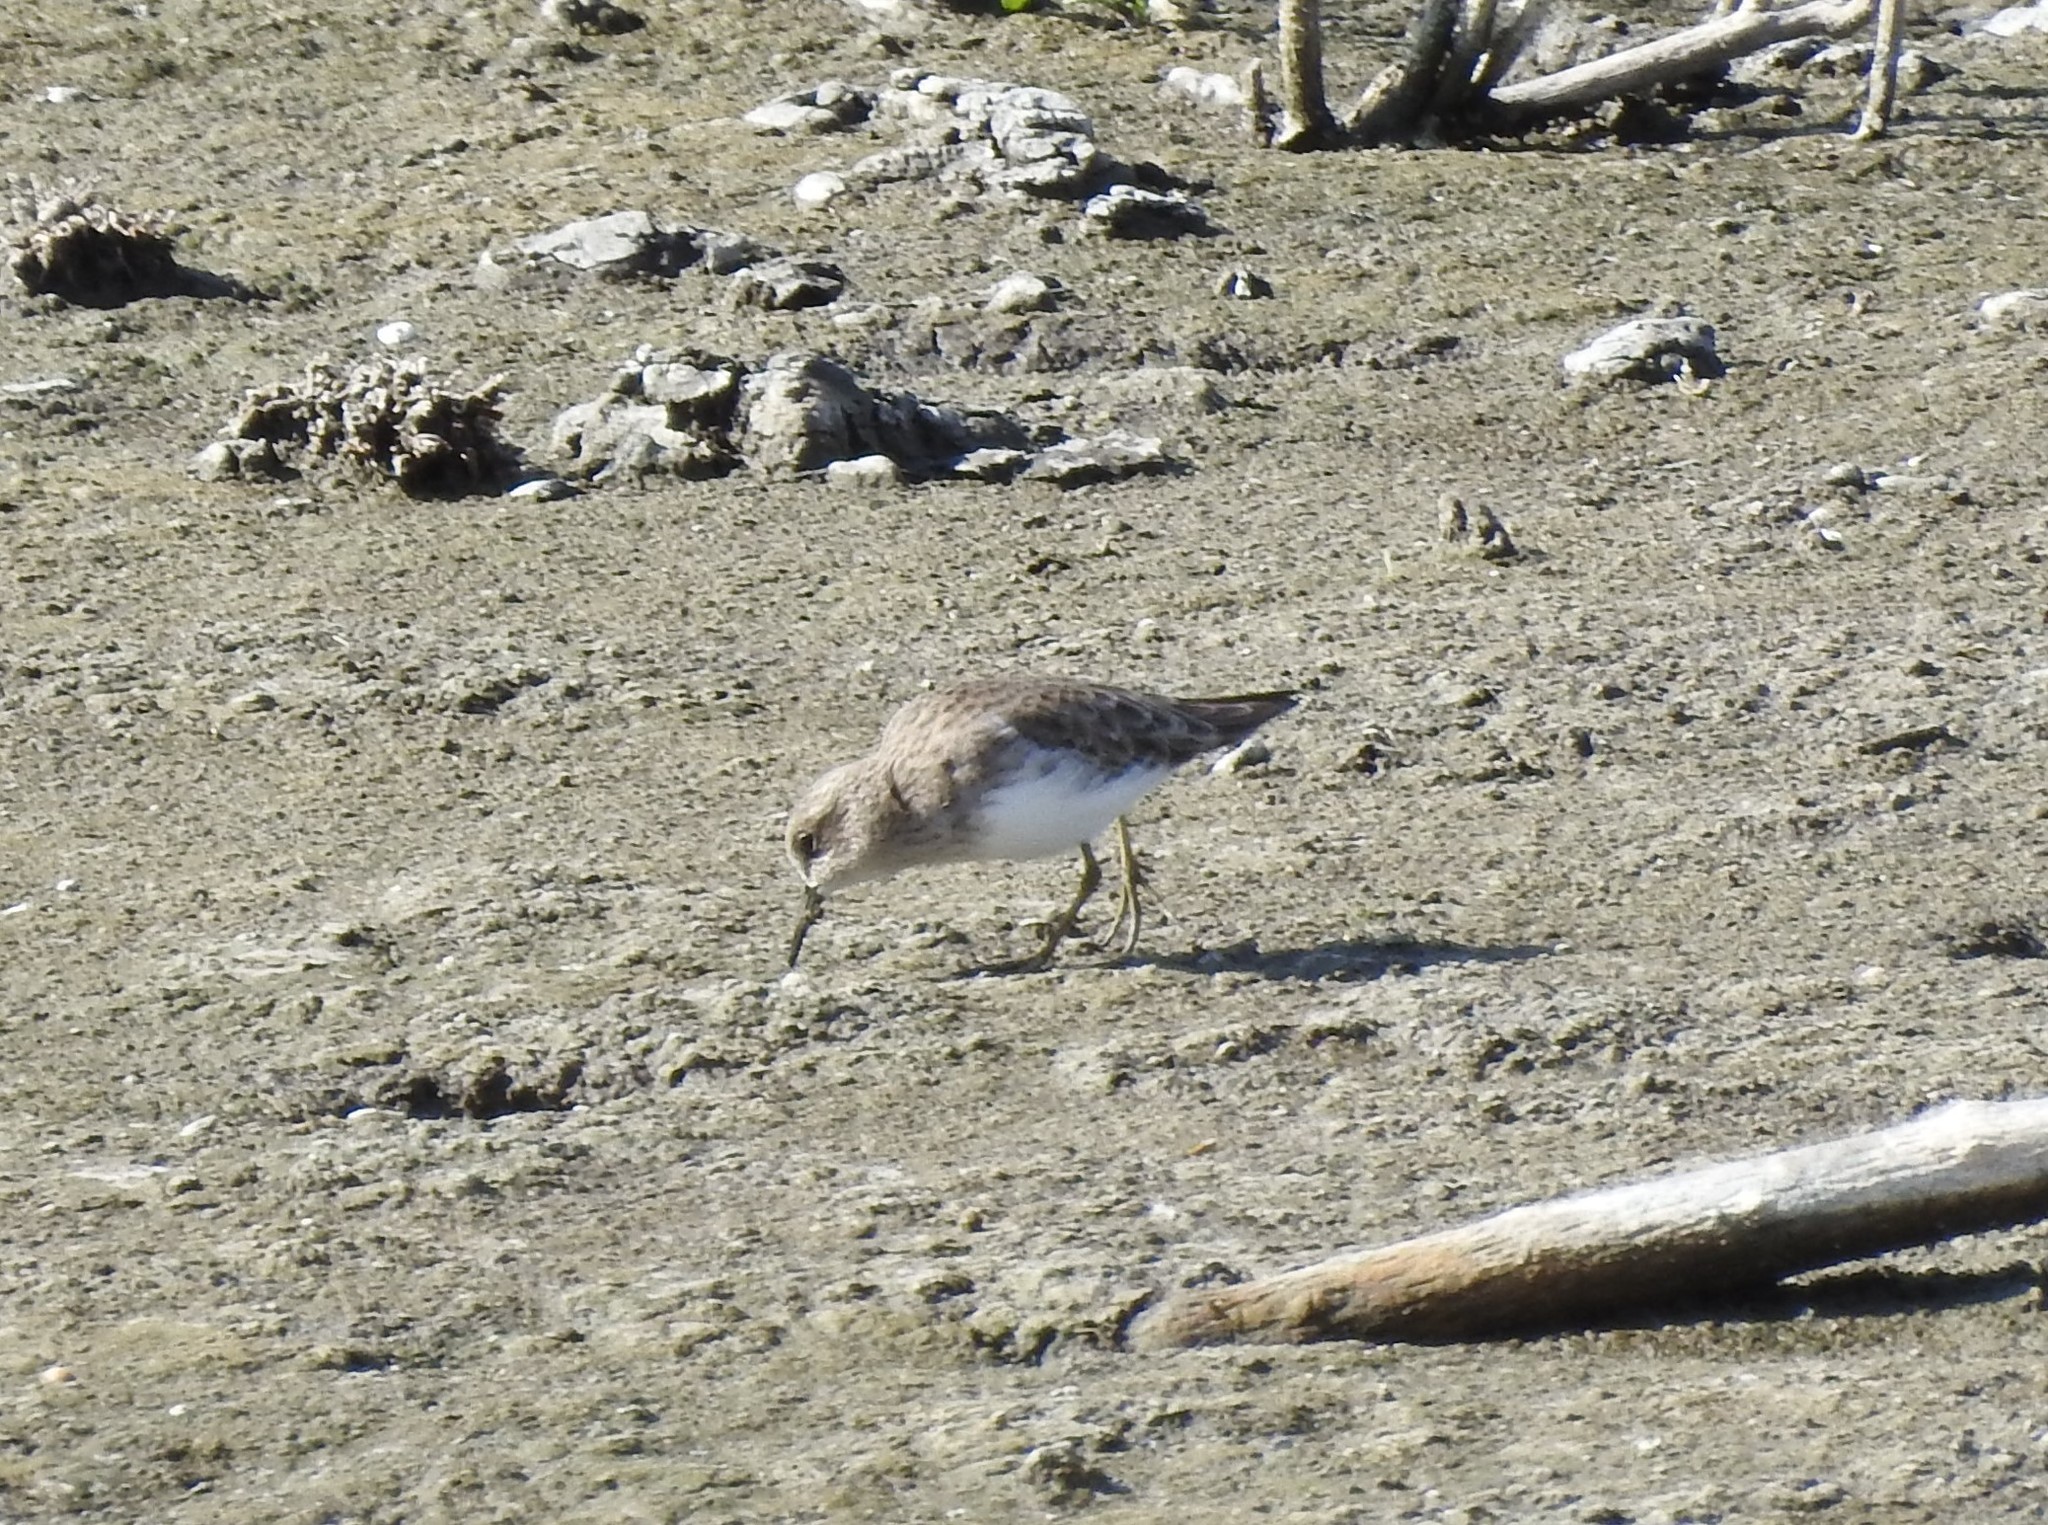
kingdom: Animalia
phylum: Chordata
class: Aves
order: Charadriiformes
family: Scolopacidae
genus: Calidris
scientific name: Calidris minutilla
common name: Least sandpiper
